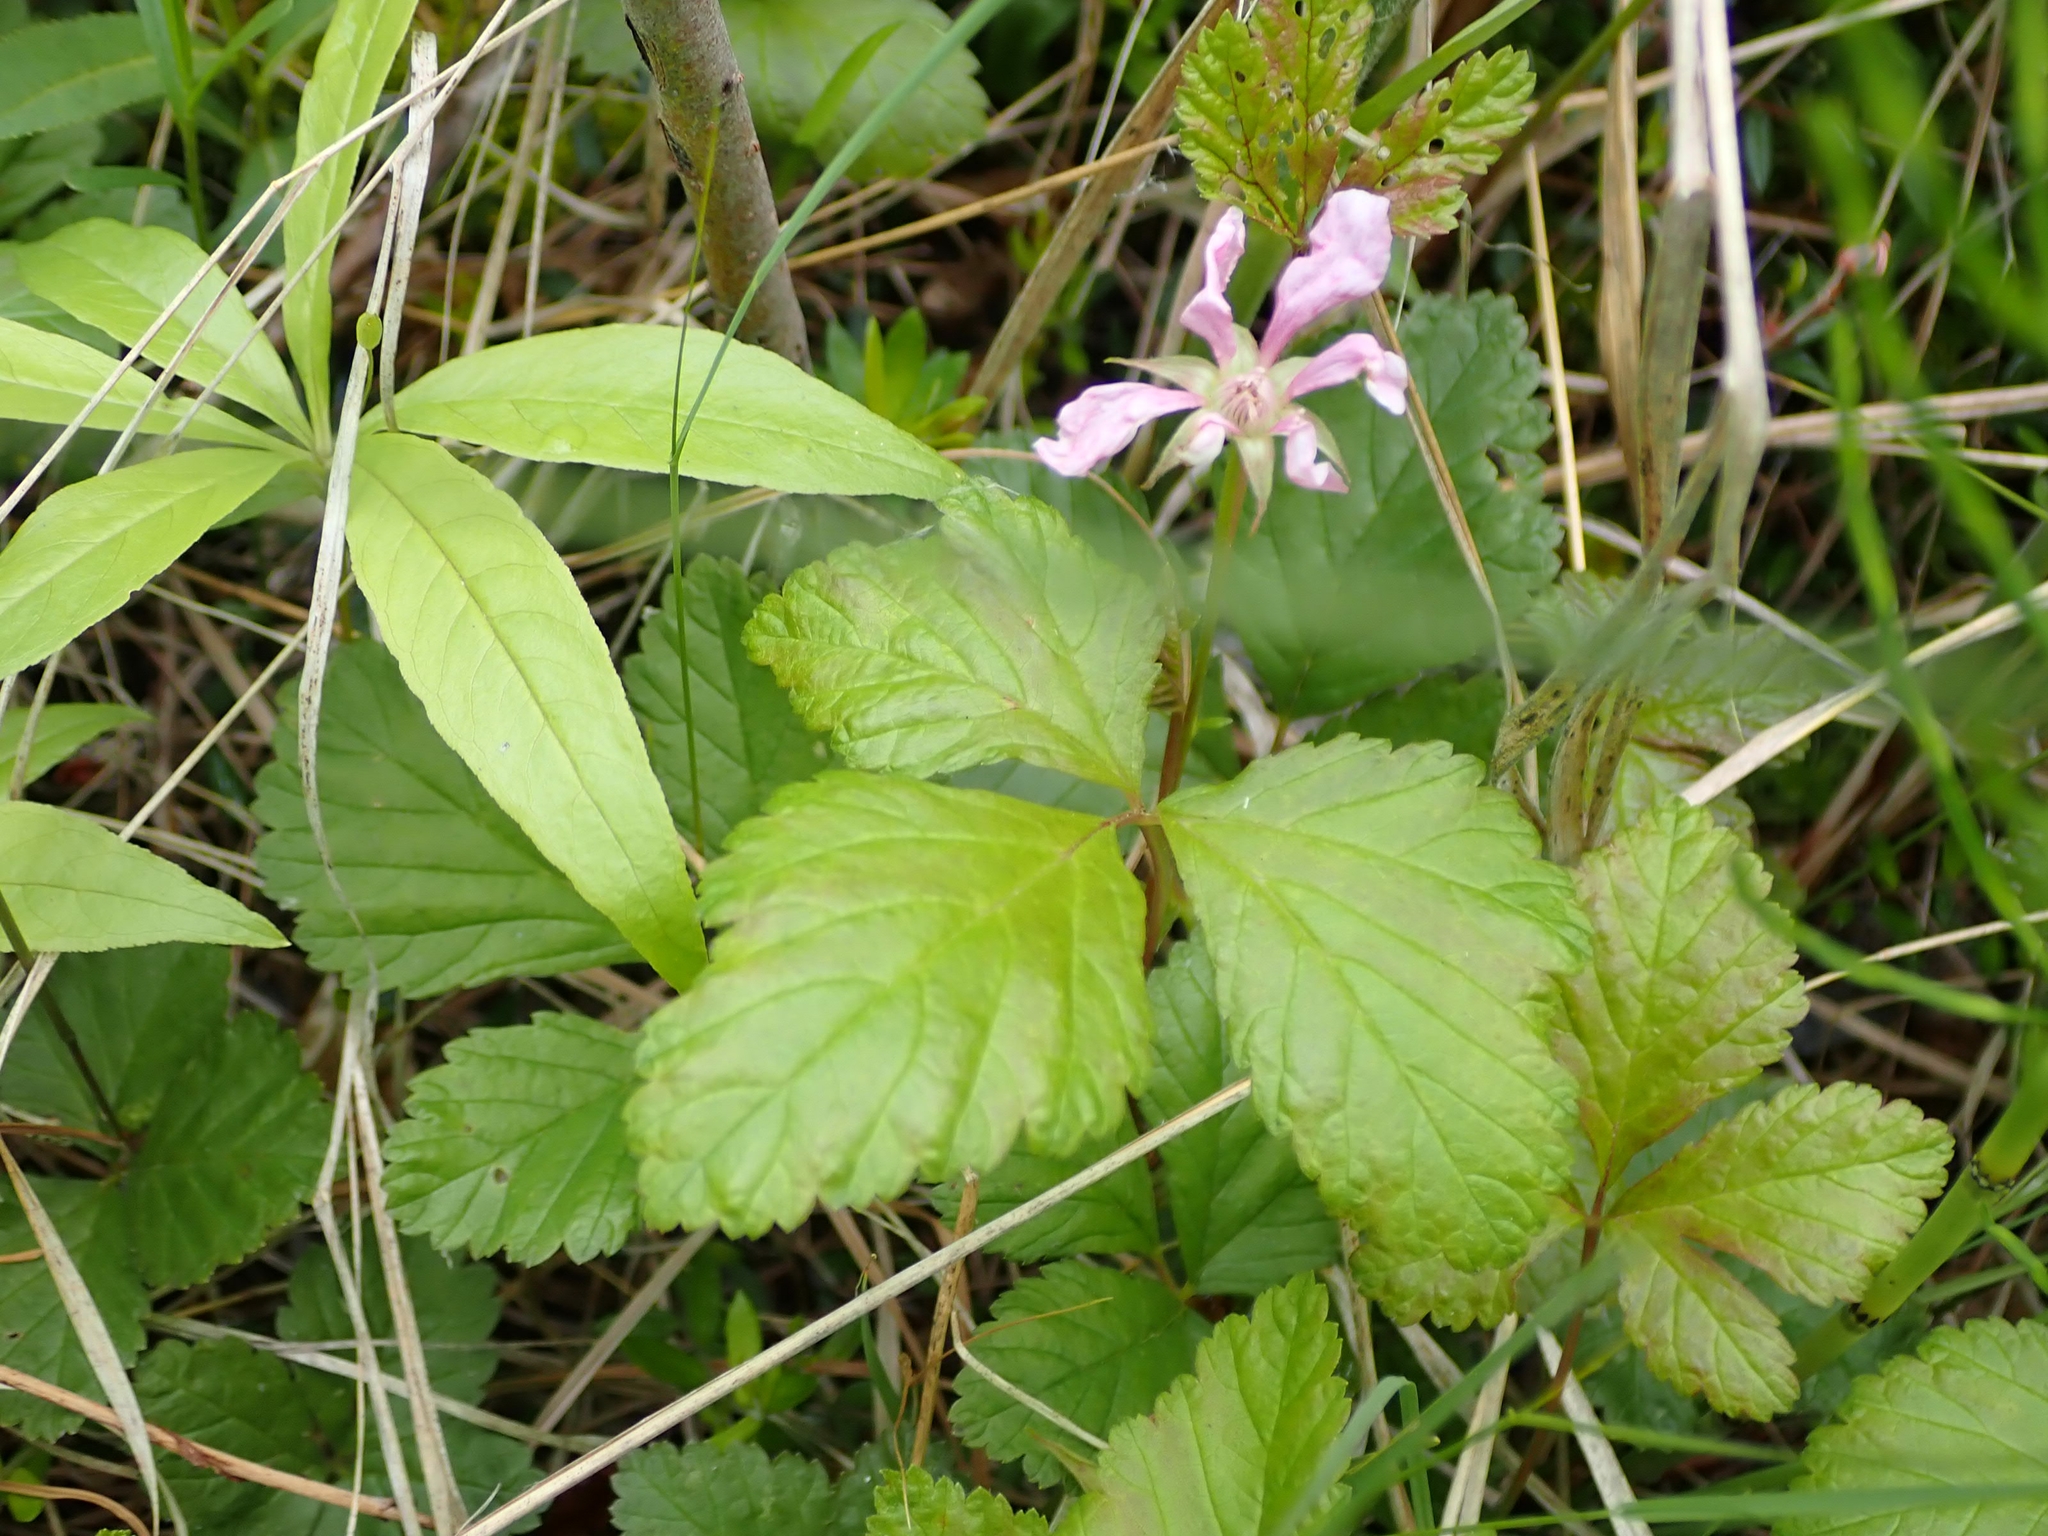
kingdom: Plantae
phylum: Tracheophyta
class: Magnoliopsida
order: Rosales
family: Rosaceae
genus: Rubus
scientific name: Rubus arcticus
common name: Arctic bramble
